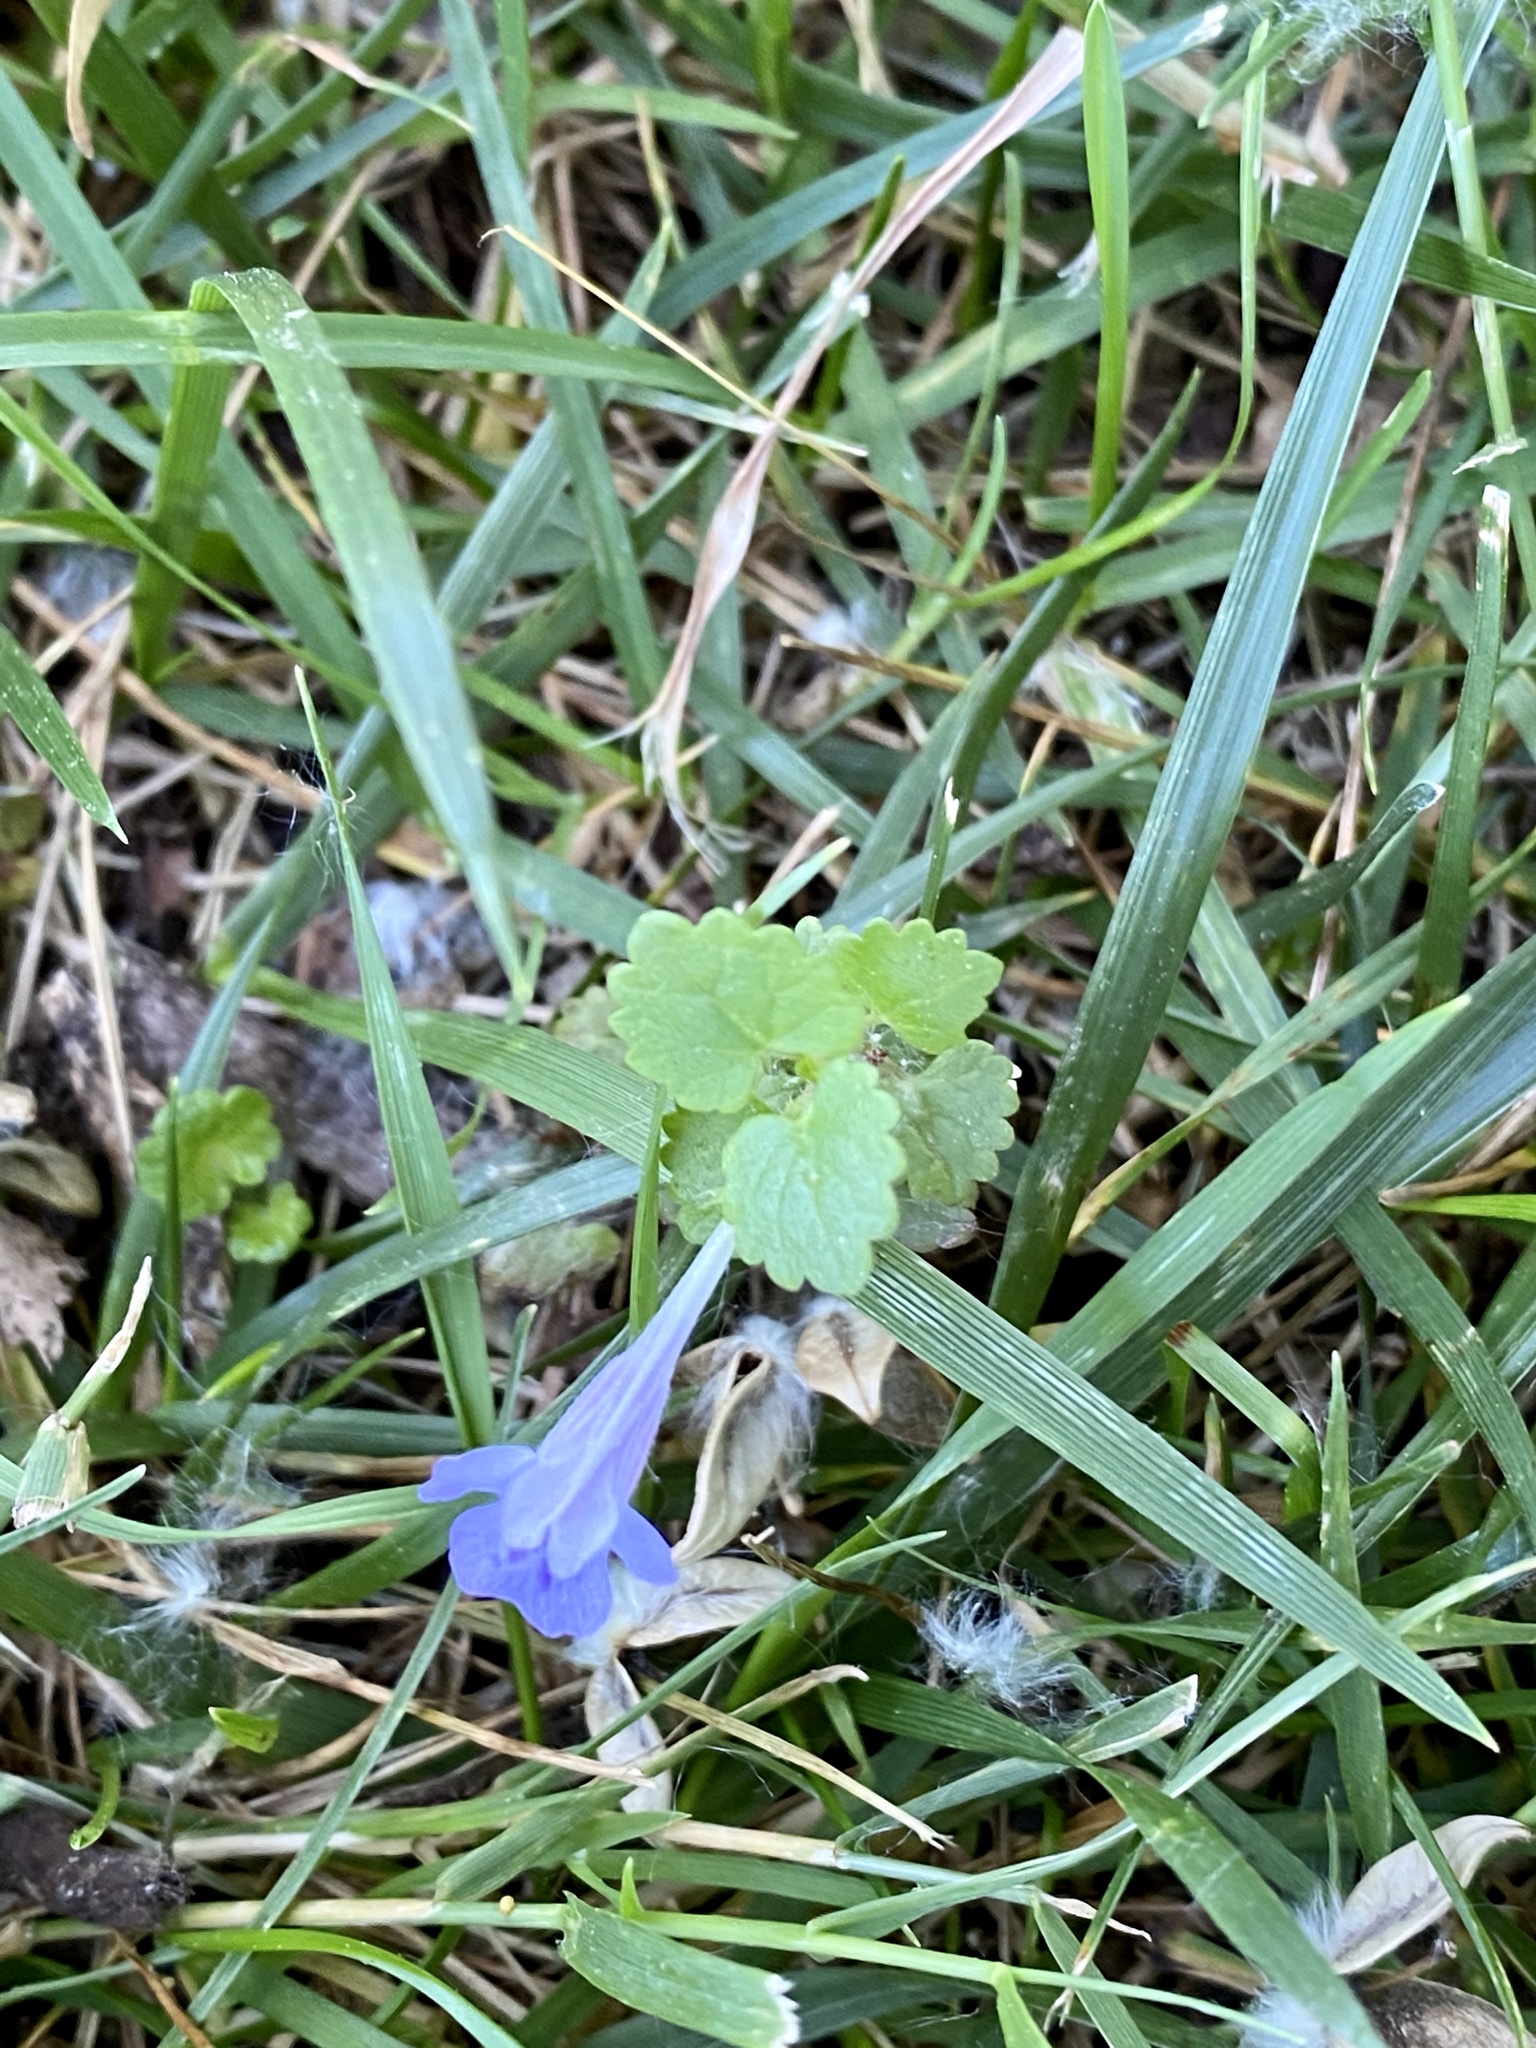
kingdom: Plantae
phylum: Tracheophyta
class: Magnoliopsida
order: Lamiales
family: Lamiaceae
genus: Glechoma
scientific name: Glechoma hederacea
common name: Ground ivy
